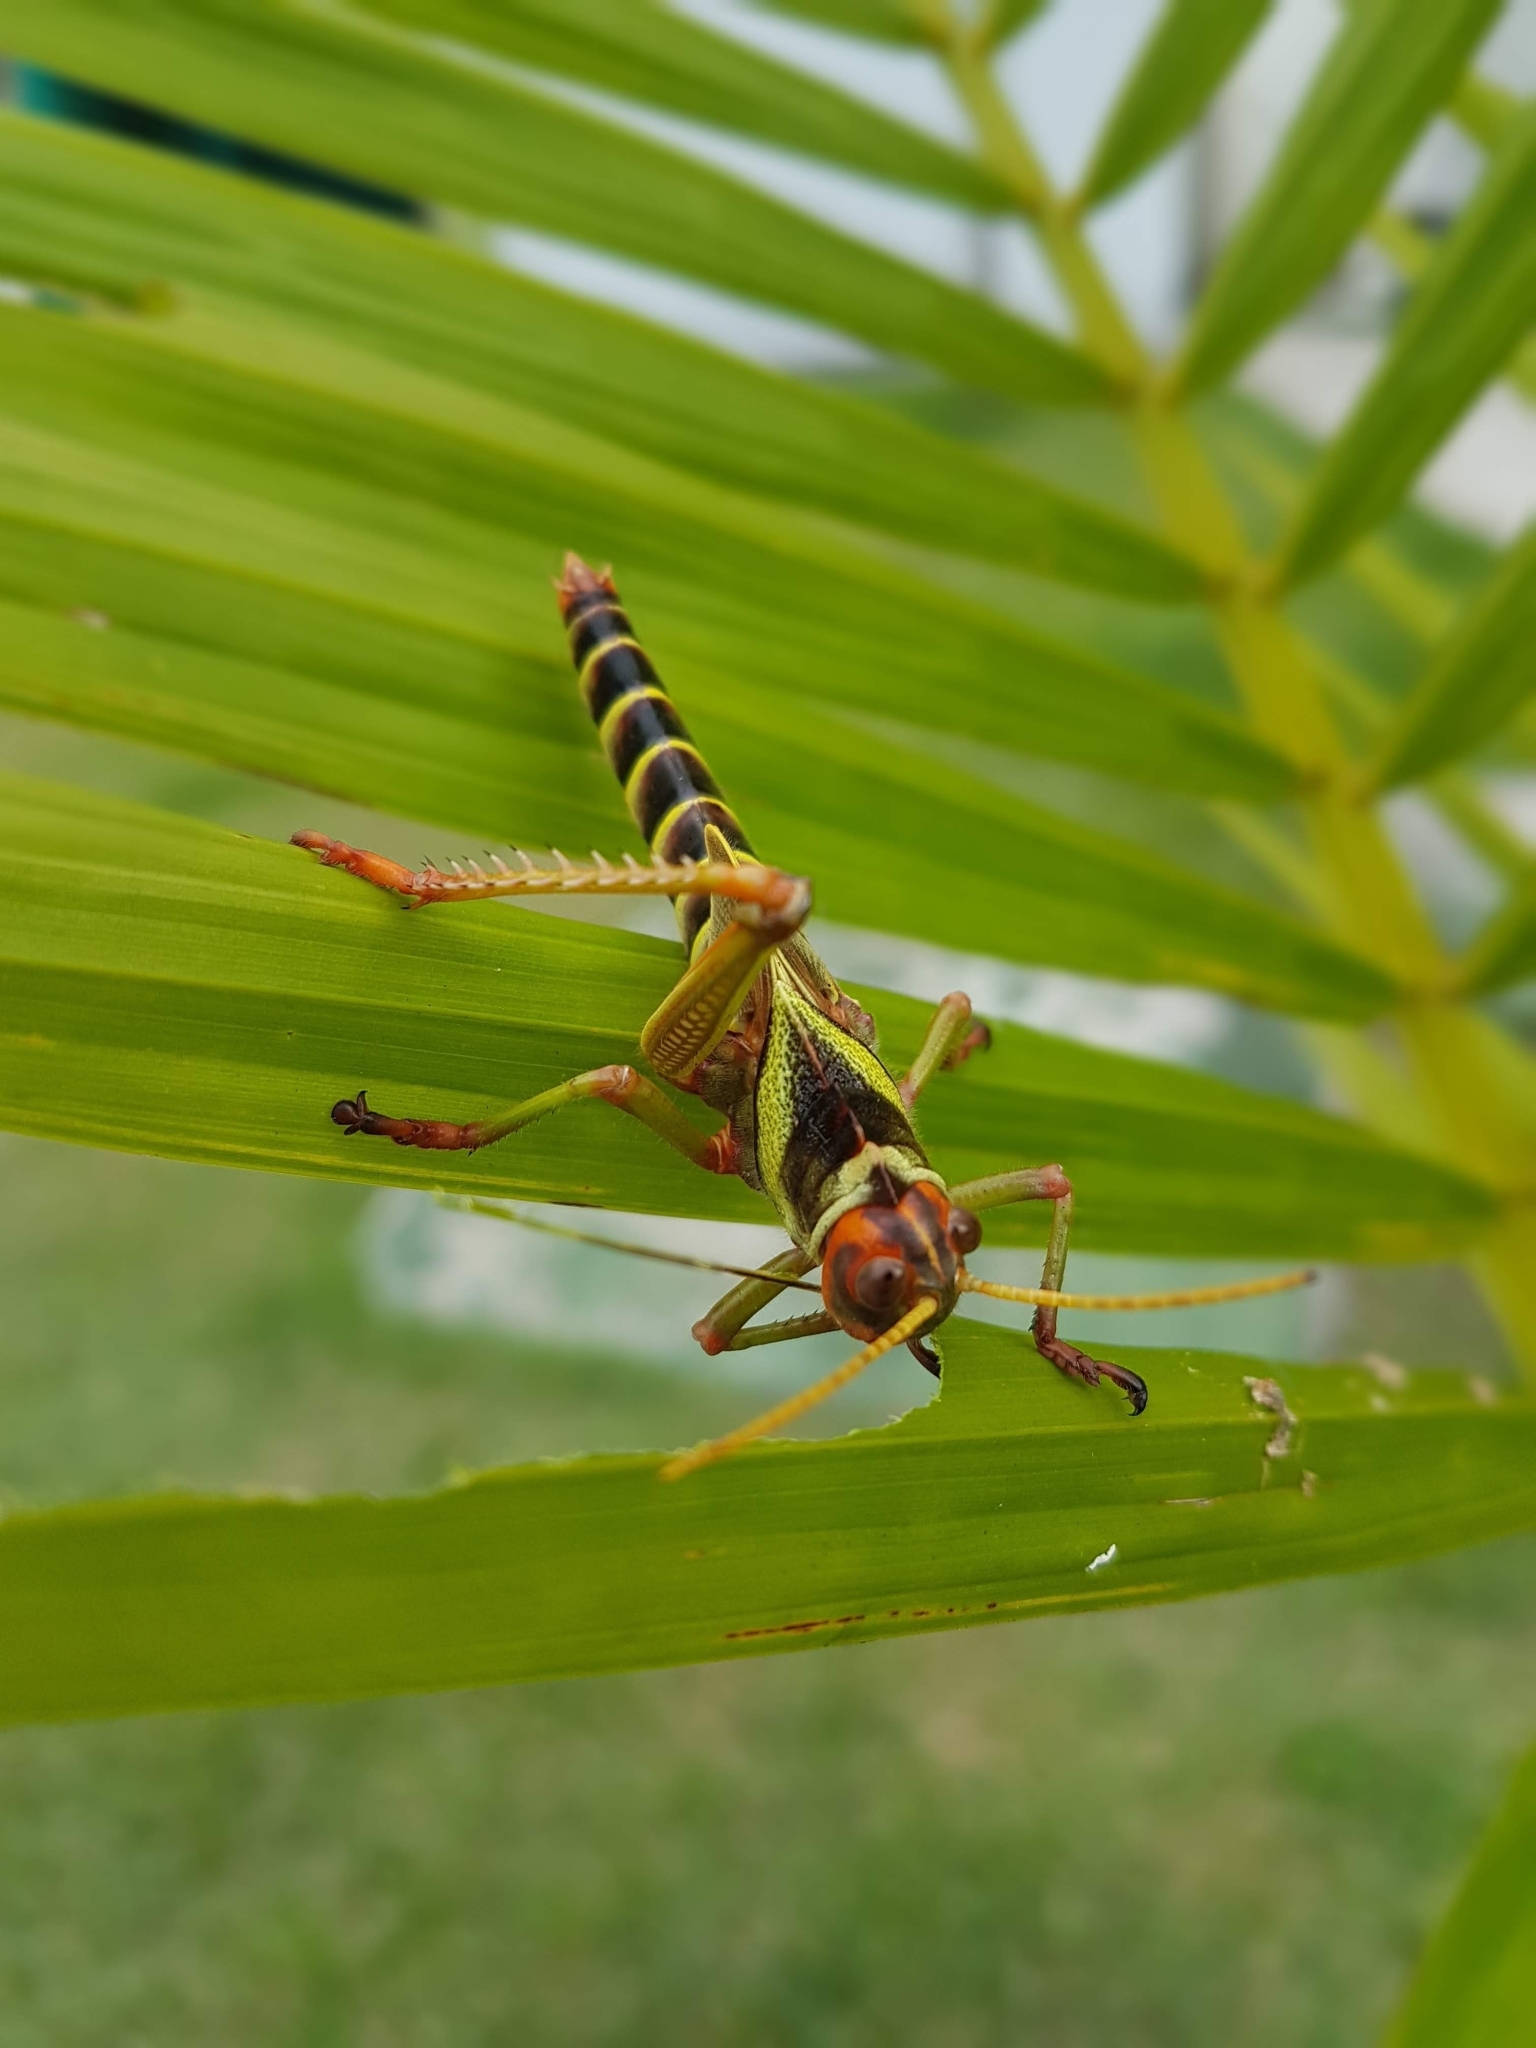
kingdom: Animalia
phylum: Arthropoda
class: Insecta
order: Orthoptera
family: Romaleidae
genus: Tropidacris
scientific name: Tropidacris collaris
